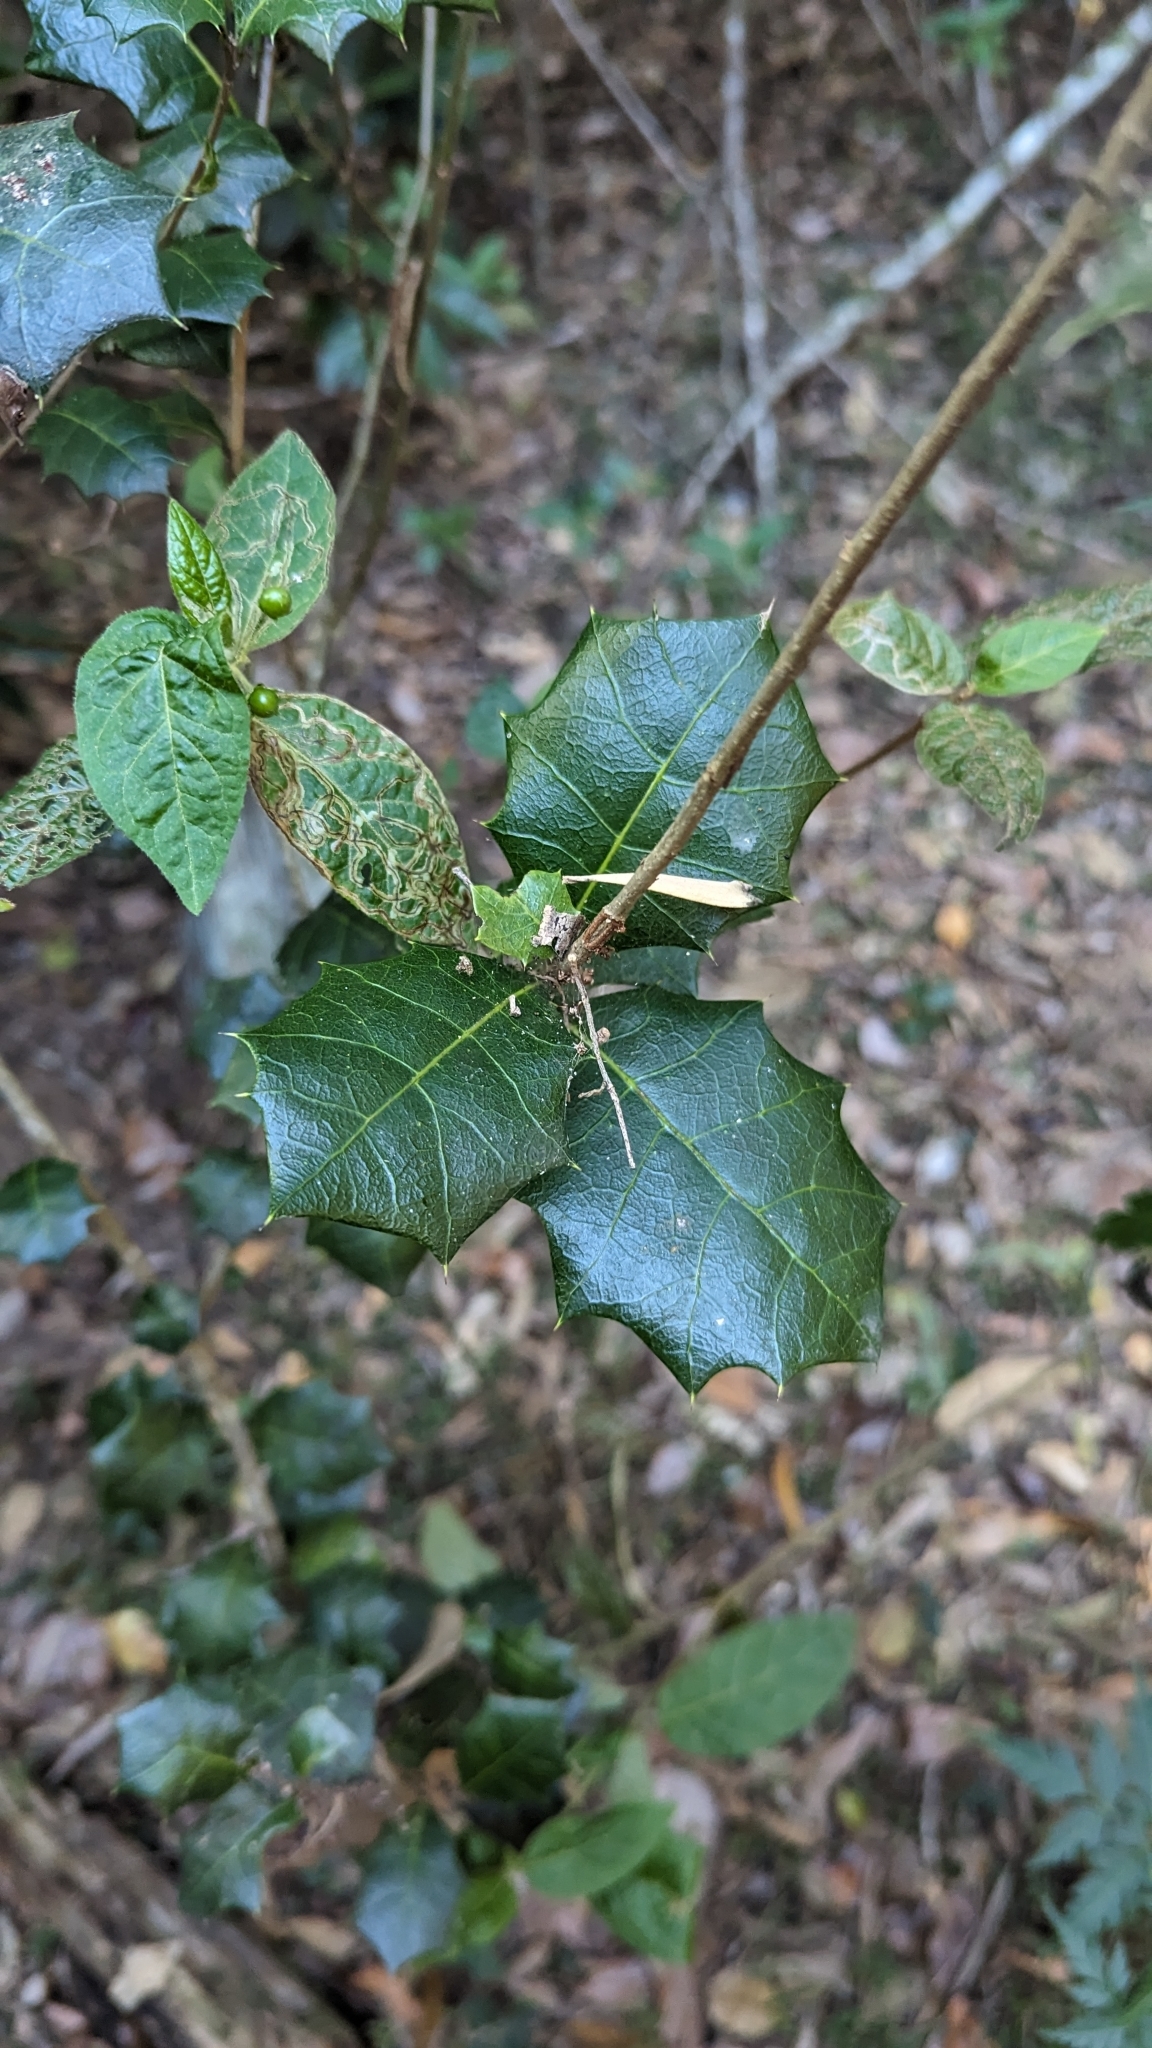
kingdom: Plantae
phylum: Tracheophyta
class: Magnoliopsida
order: Malpighiales
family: Euphorbiaceae
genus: Alchornea
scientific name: Alchornea ilicifolia
